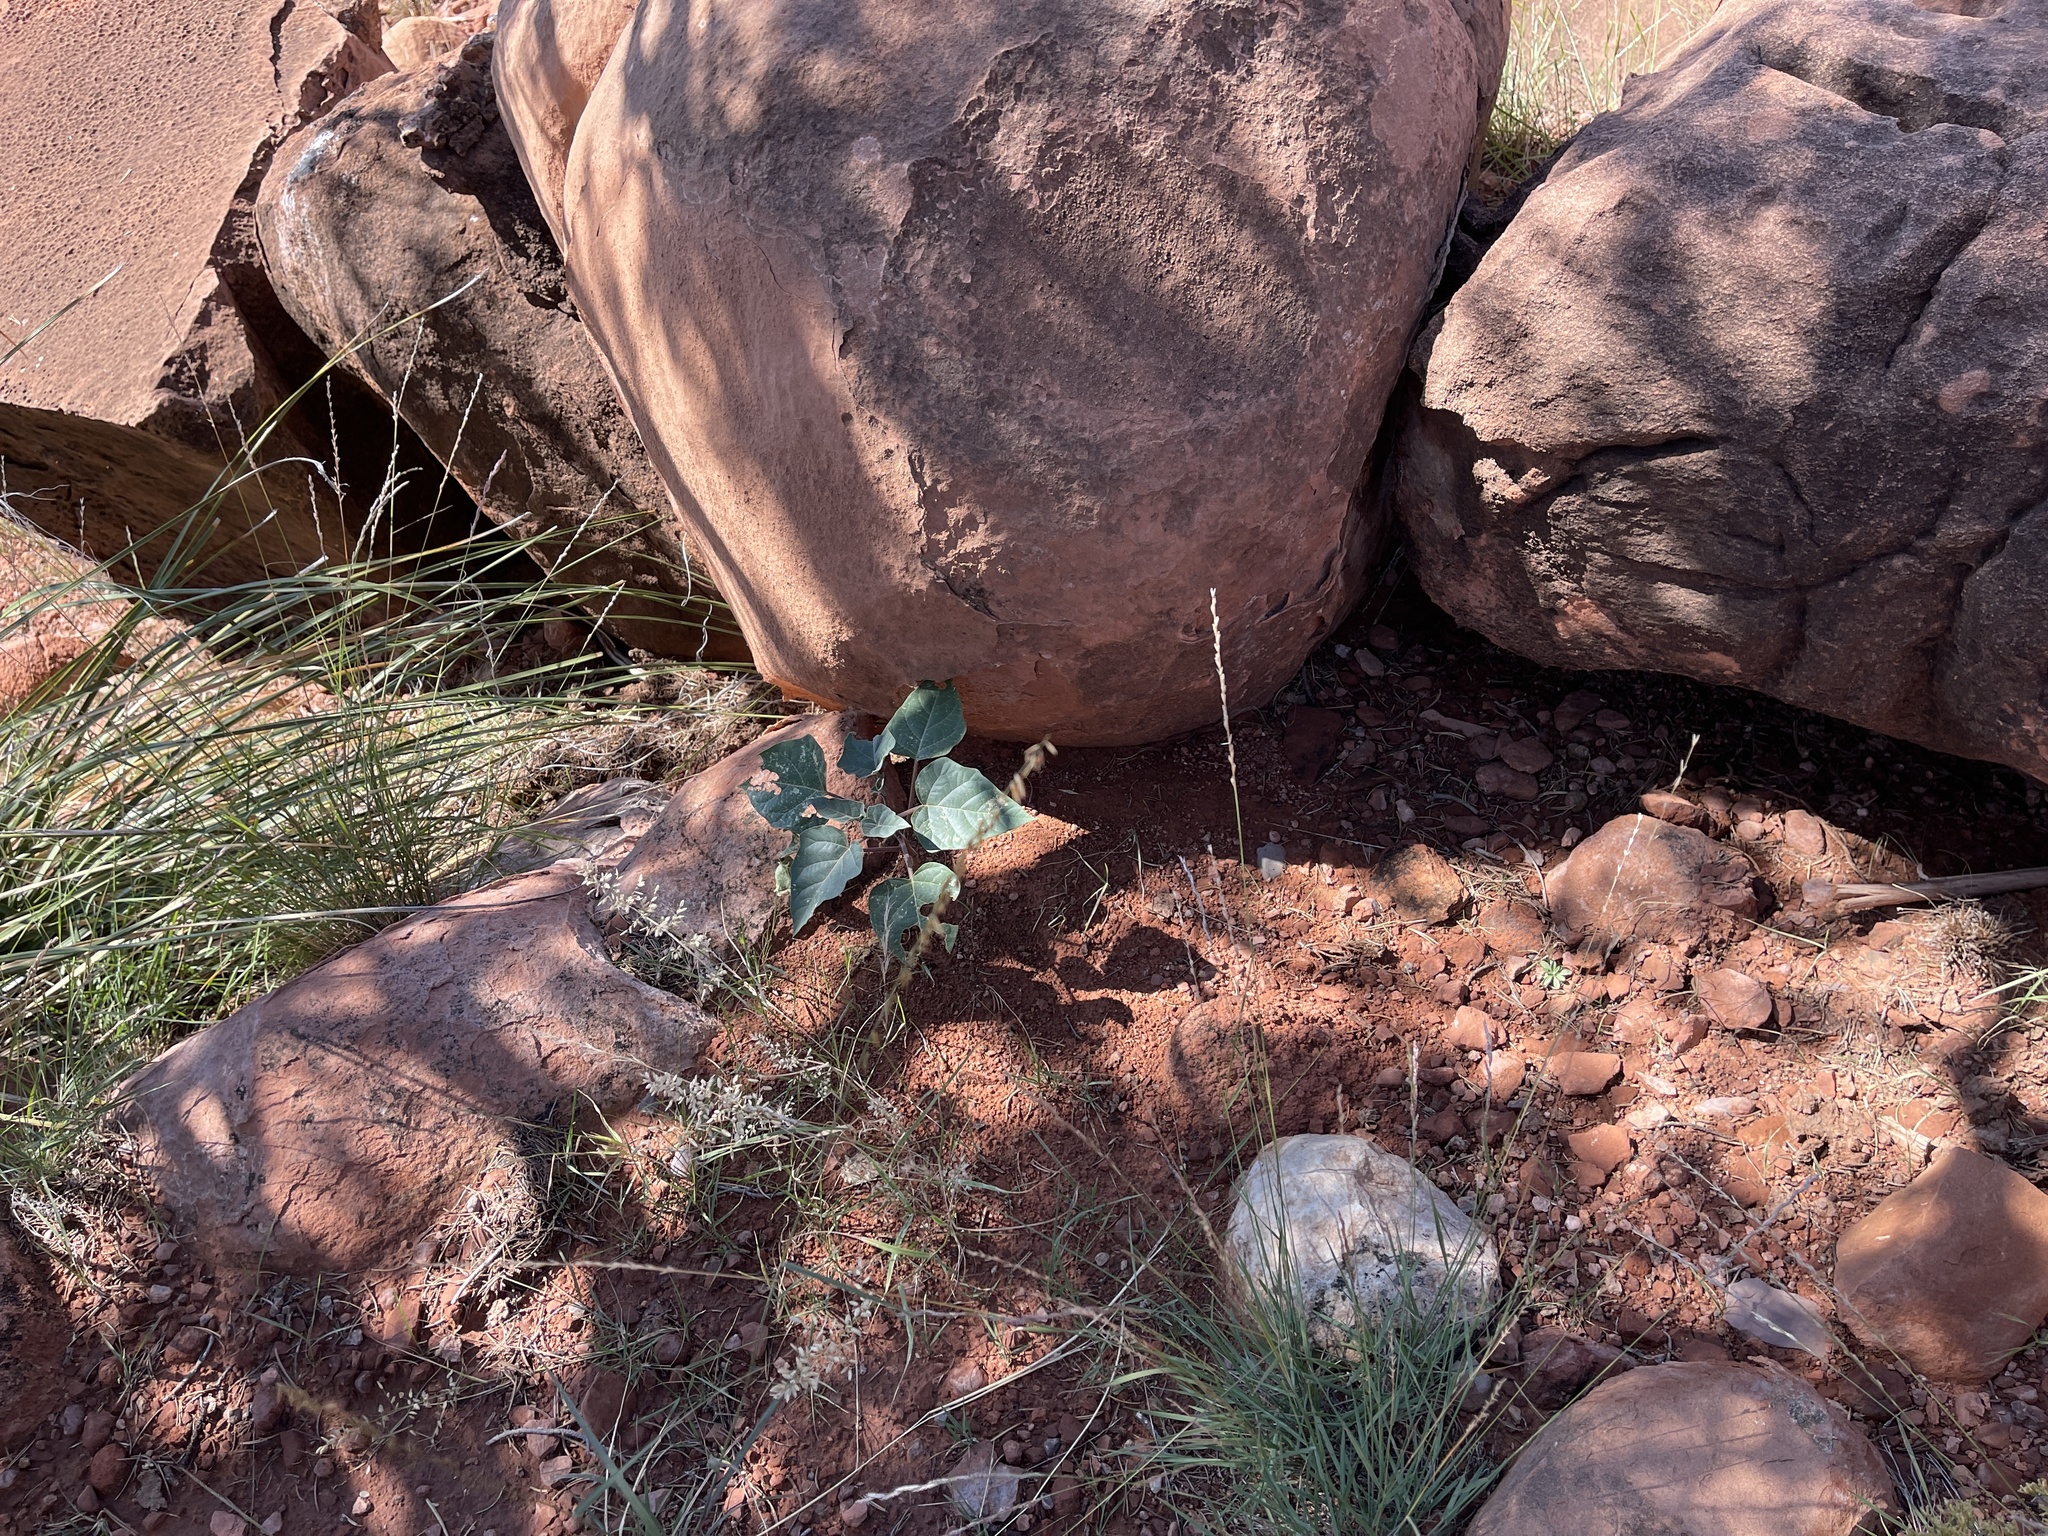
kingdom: Plantae
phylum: Tracheophyta
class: Magnoliopsida
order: Solanales
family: Solanaceae
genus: Datura
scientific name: Datura wrightii
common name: Sacred thorn-apple
